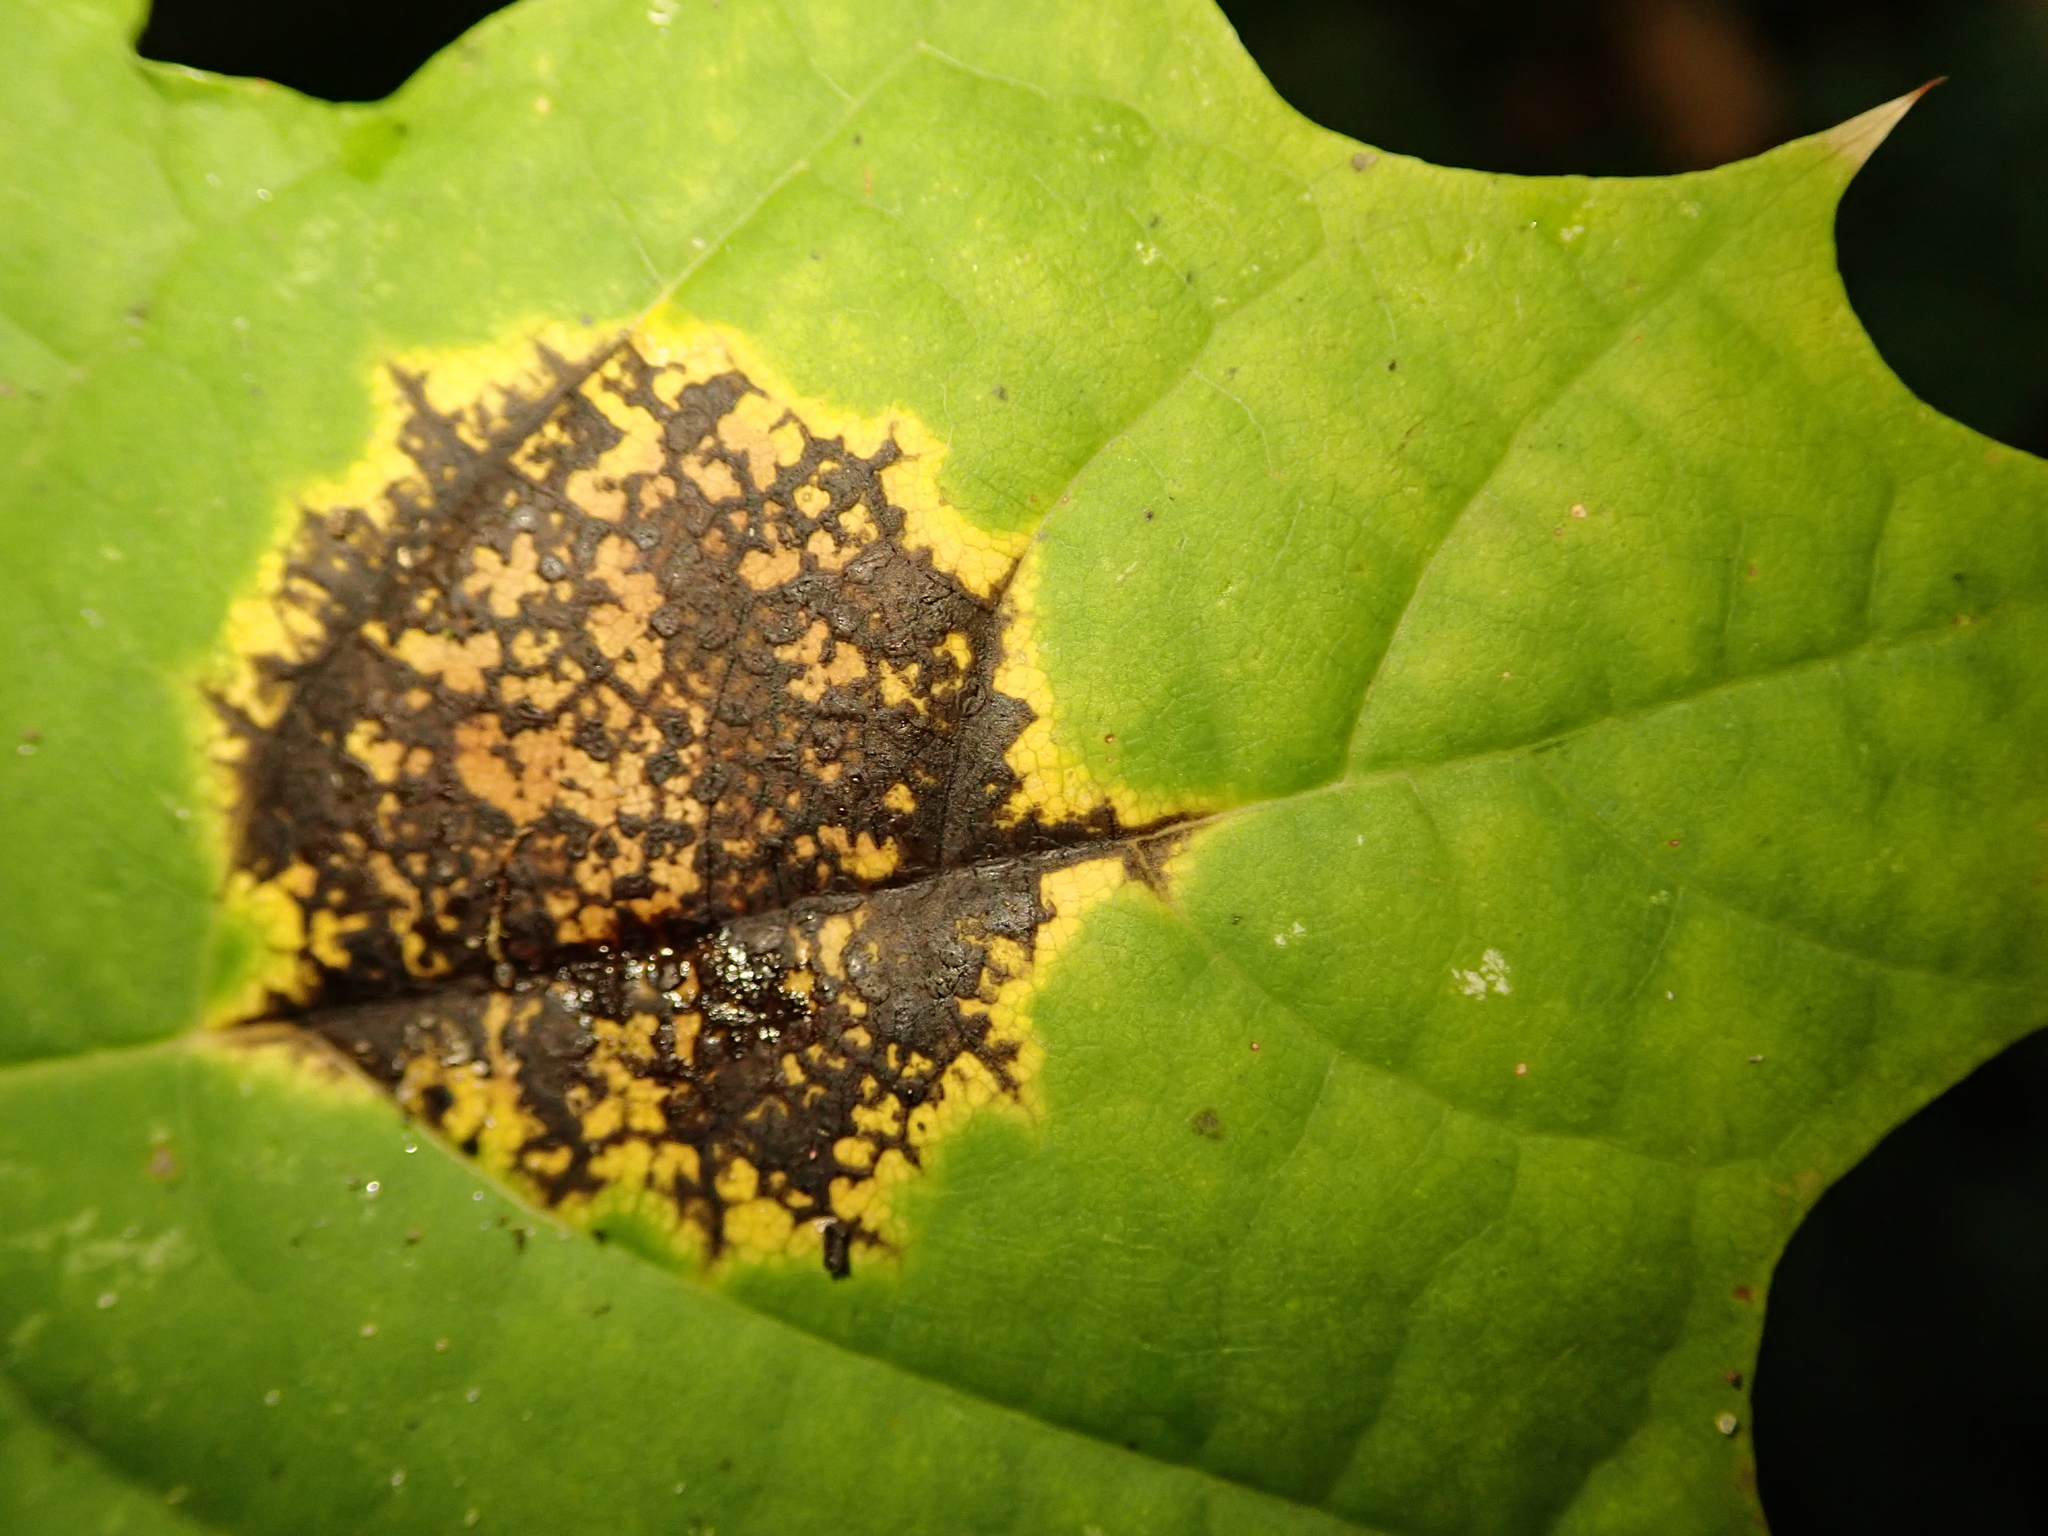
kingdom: Fungi
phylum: Ascomycota
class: Leotiomycetes
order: Rhytismatales
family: Rhytismataceae
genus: Rhytisma
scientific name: Rhytisma acerinum
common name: European tar spot
